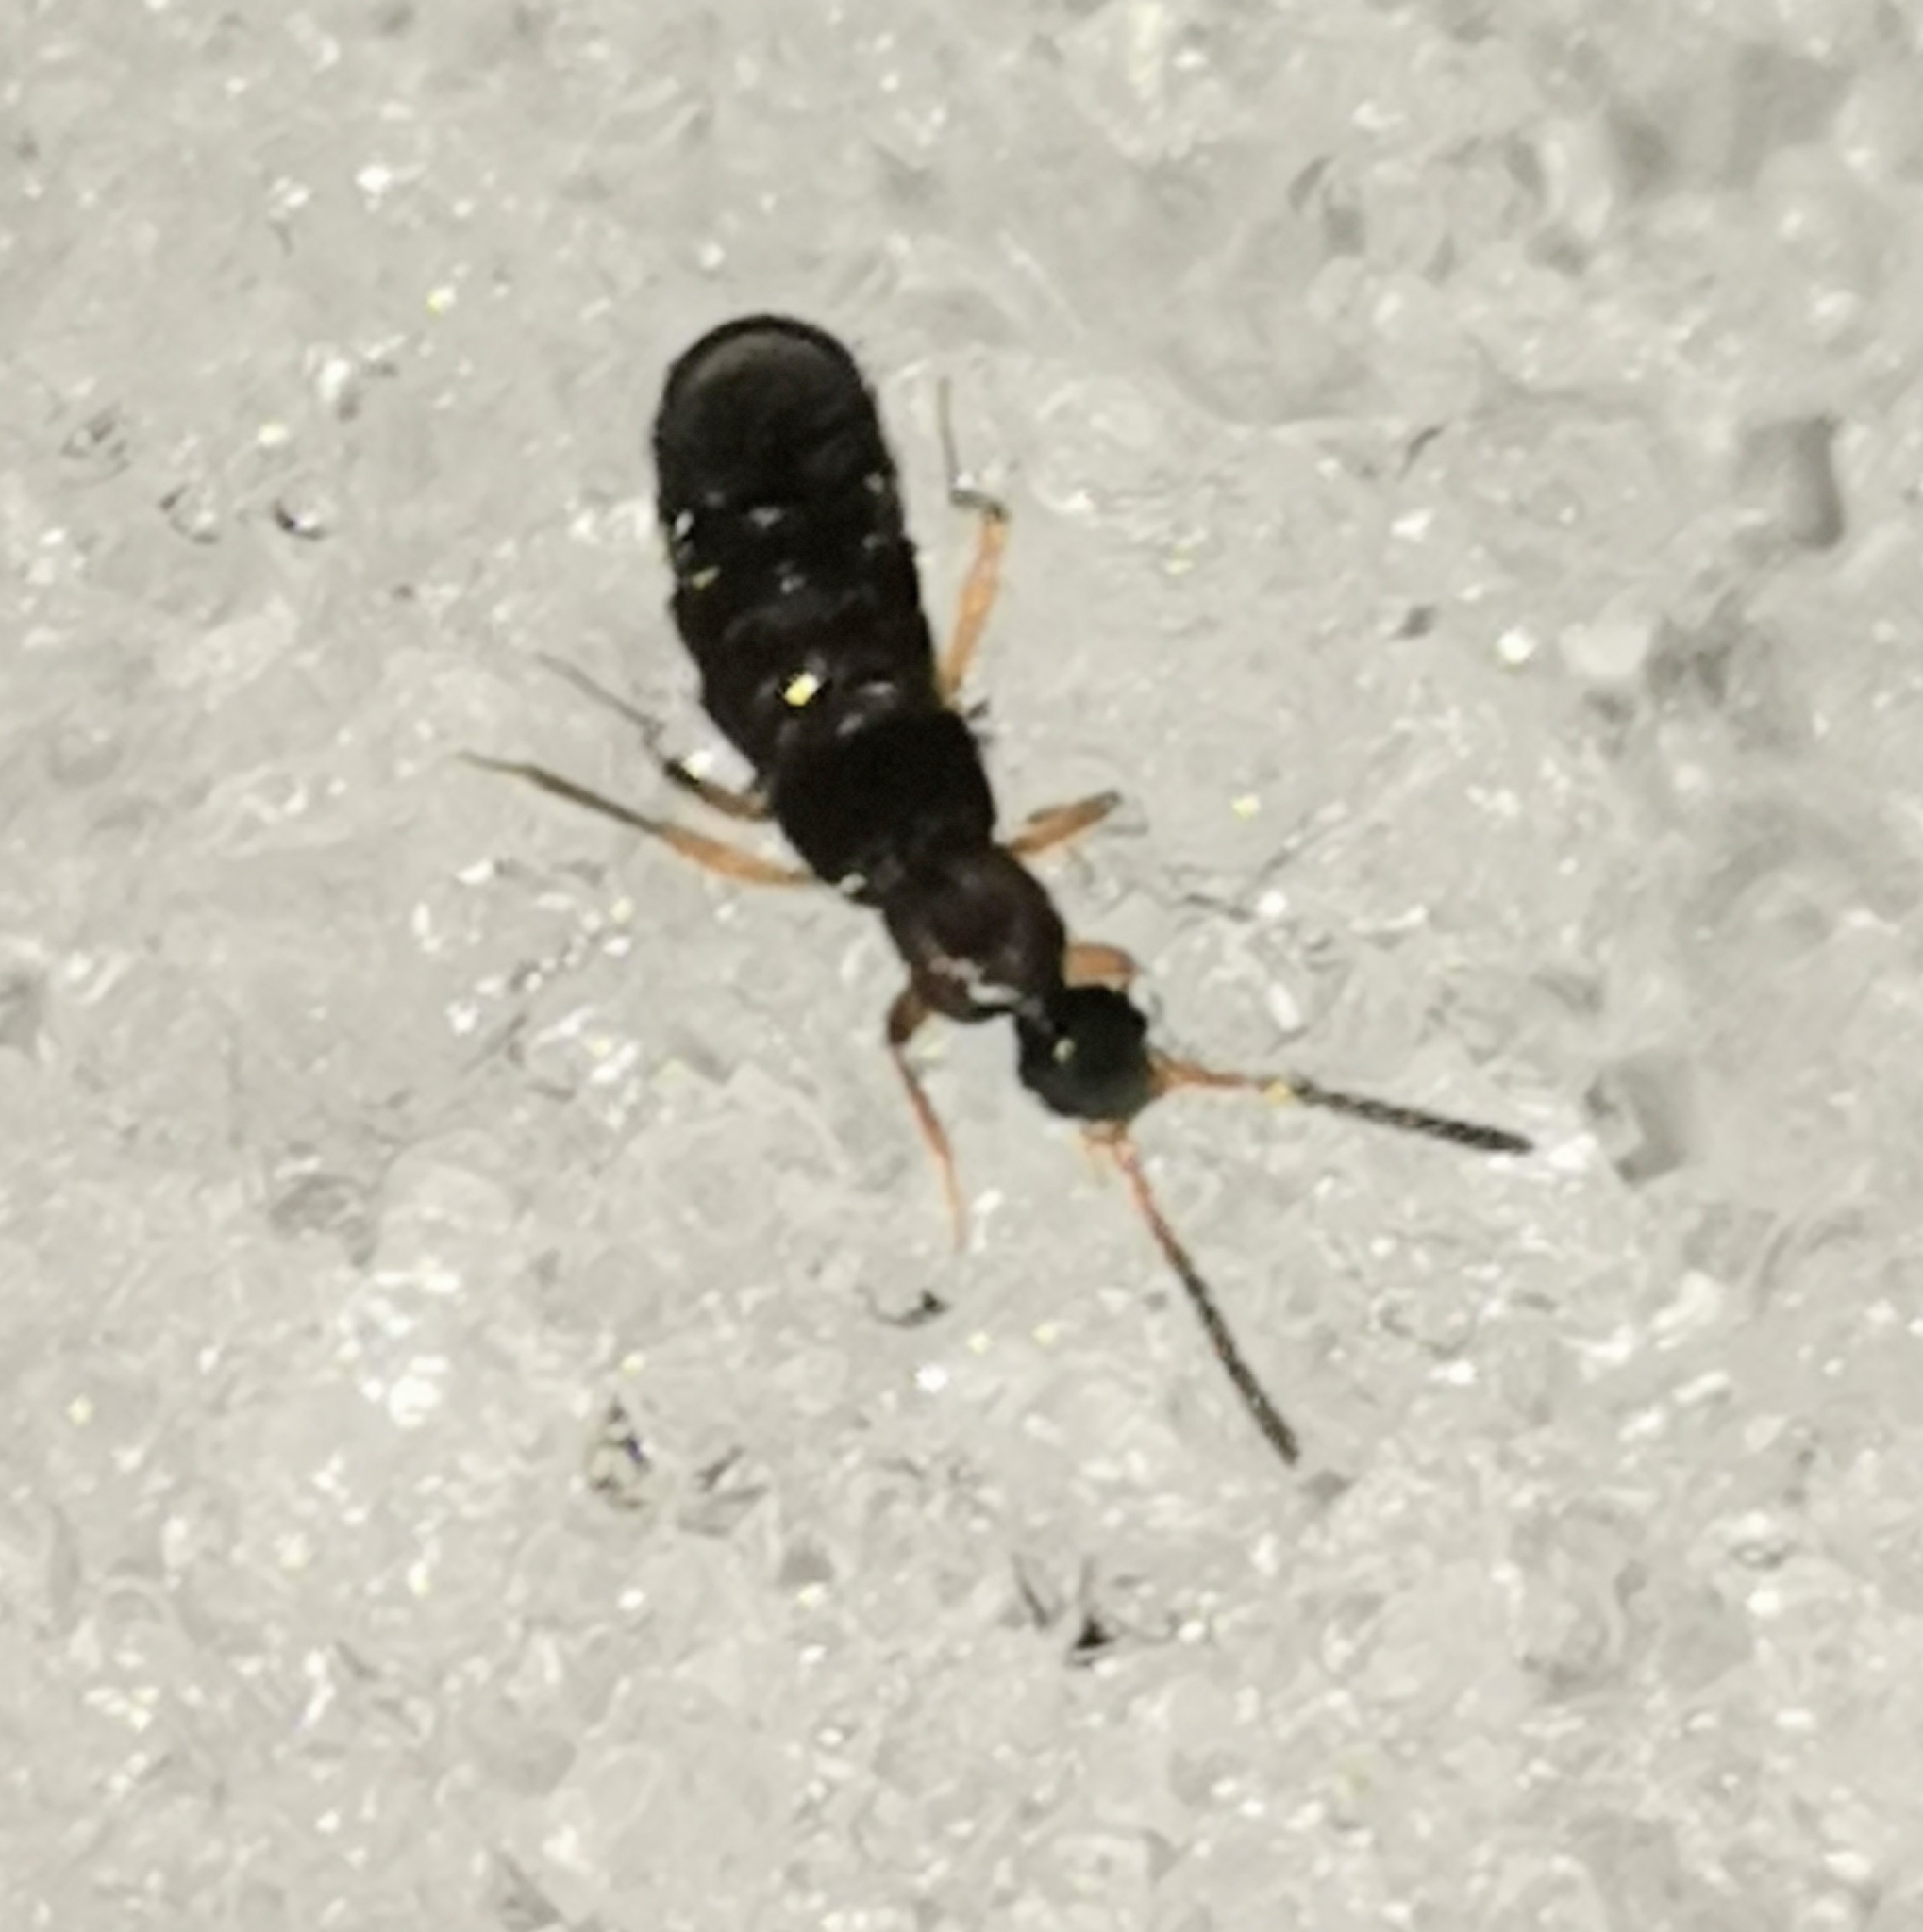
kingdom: Animalia
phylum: Arthropoda
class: Insecta
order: Coleoptera
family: Staphylinidae
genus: Drusilla
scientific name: Drusilla canaliculata
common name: Rove beetle
